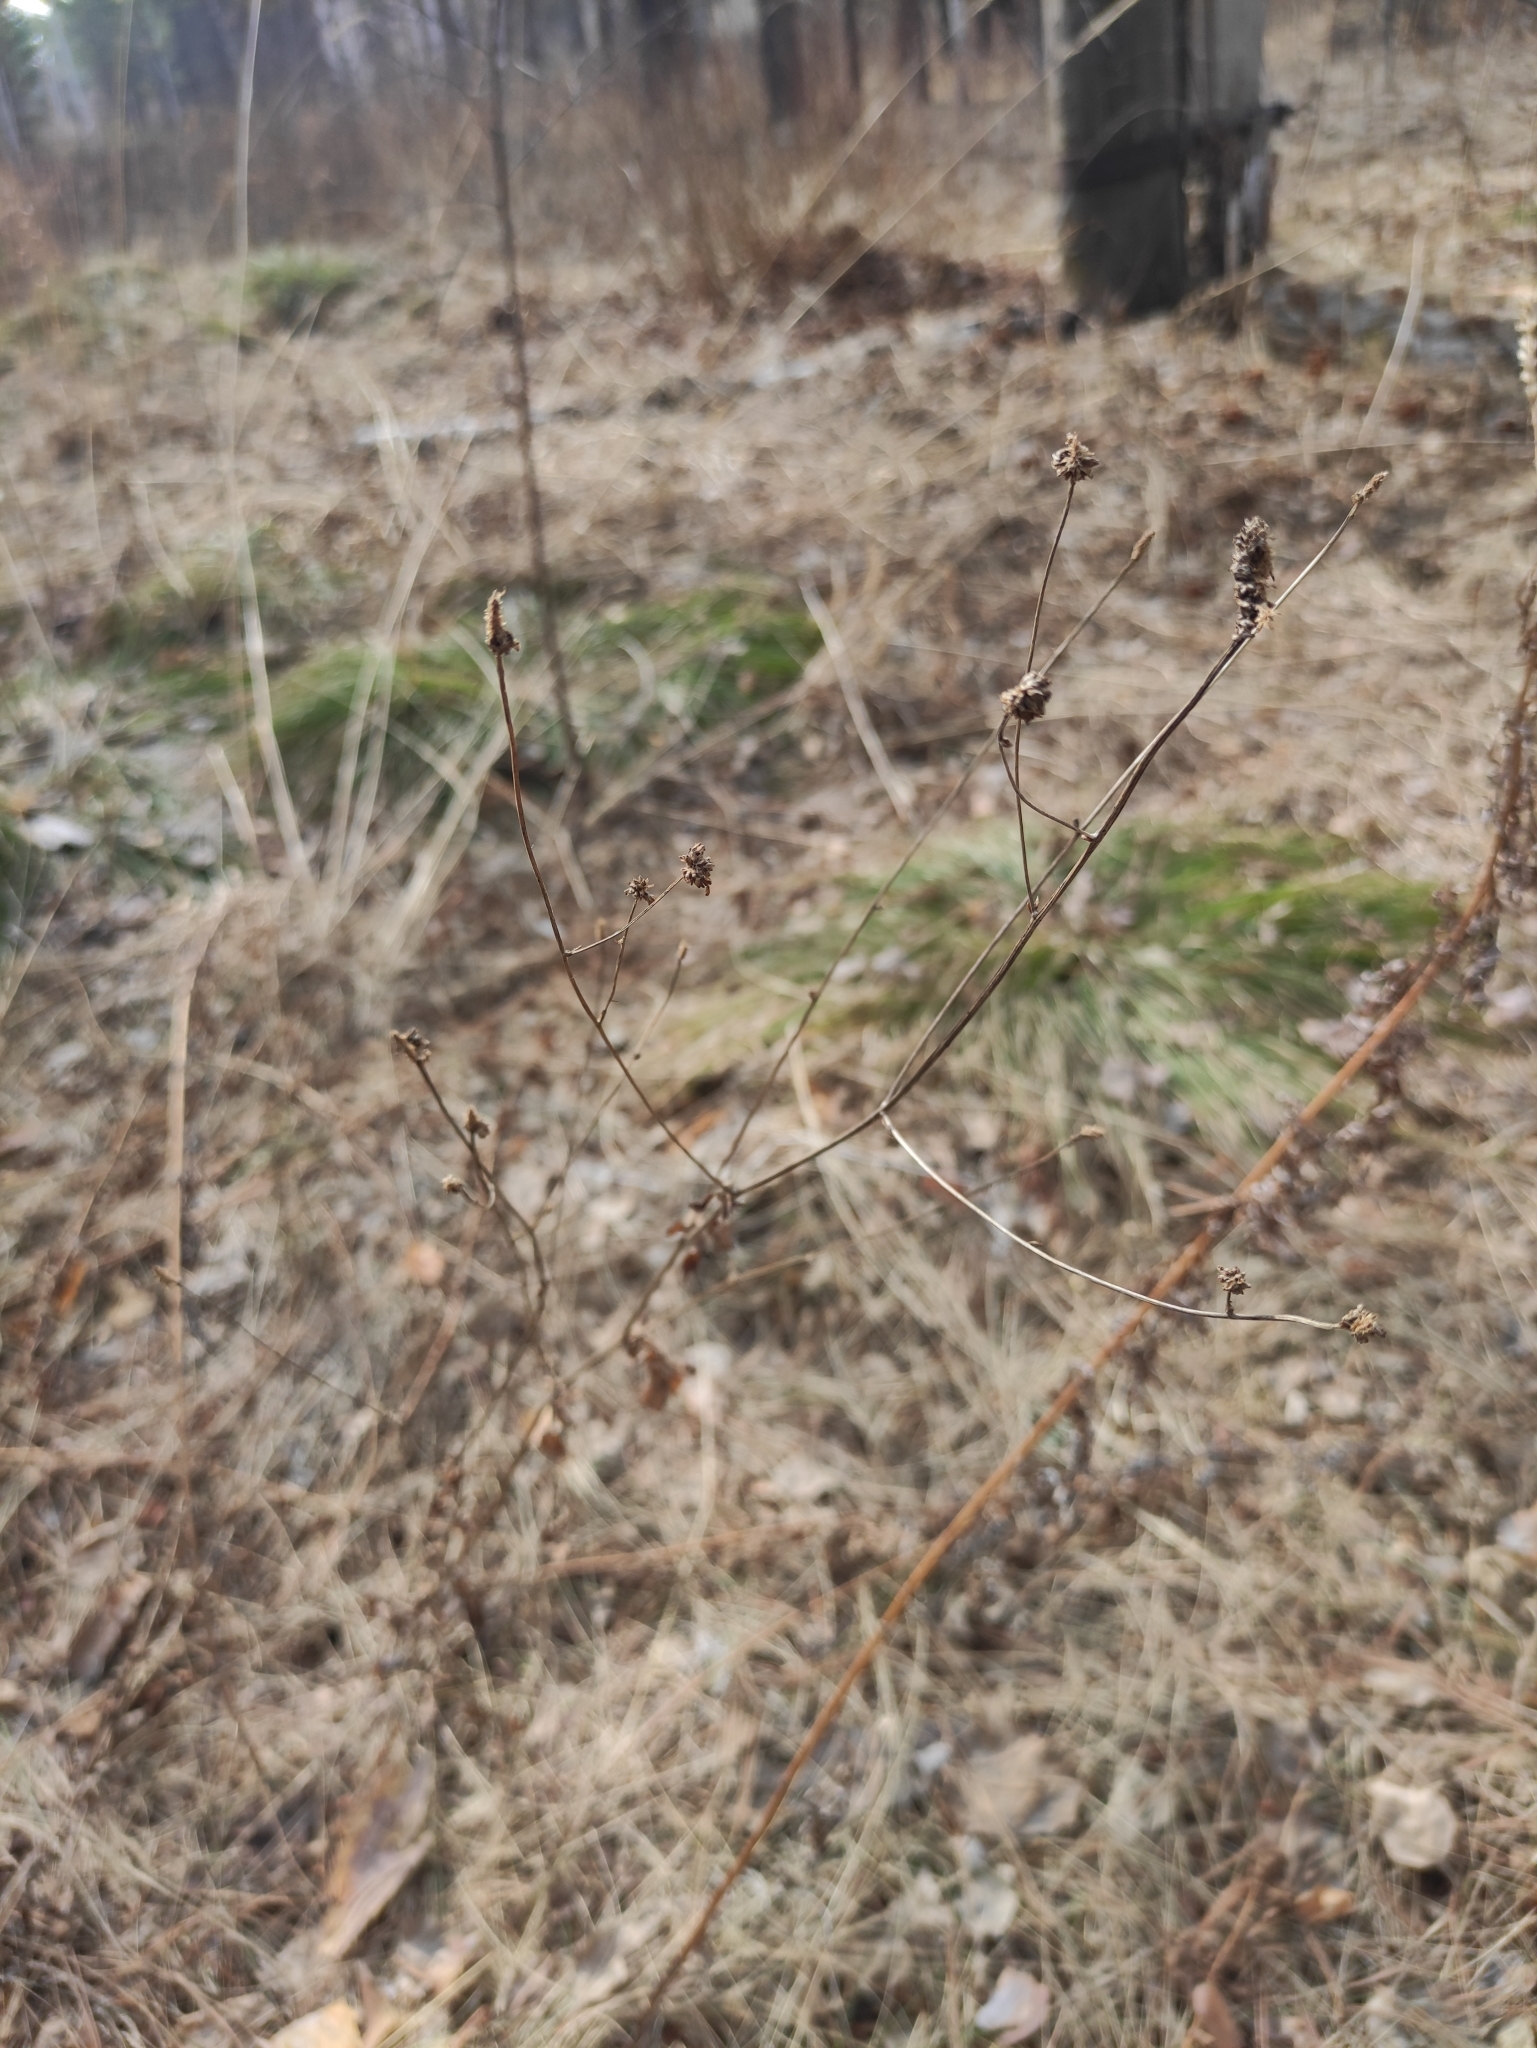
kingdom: Plantae
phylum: Tracheophyta
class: Magnoliopsida
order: Rosales
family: Rosaceae
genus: Sanguisorba
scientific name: Sanguisorba officinalis
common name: Great burnet
